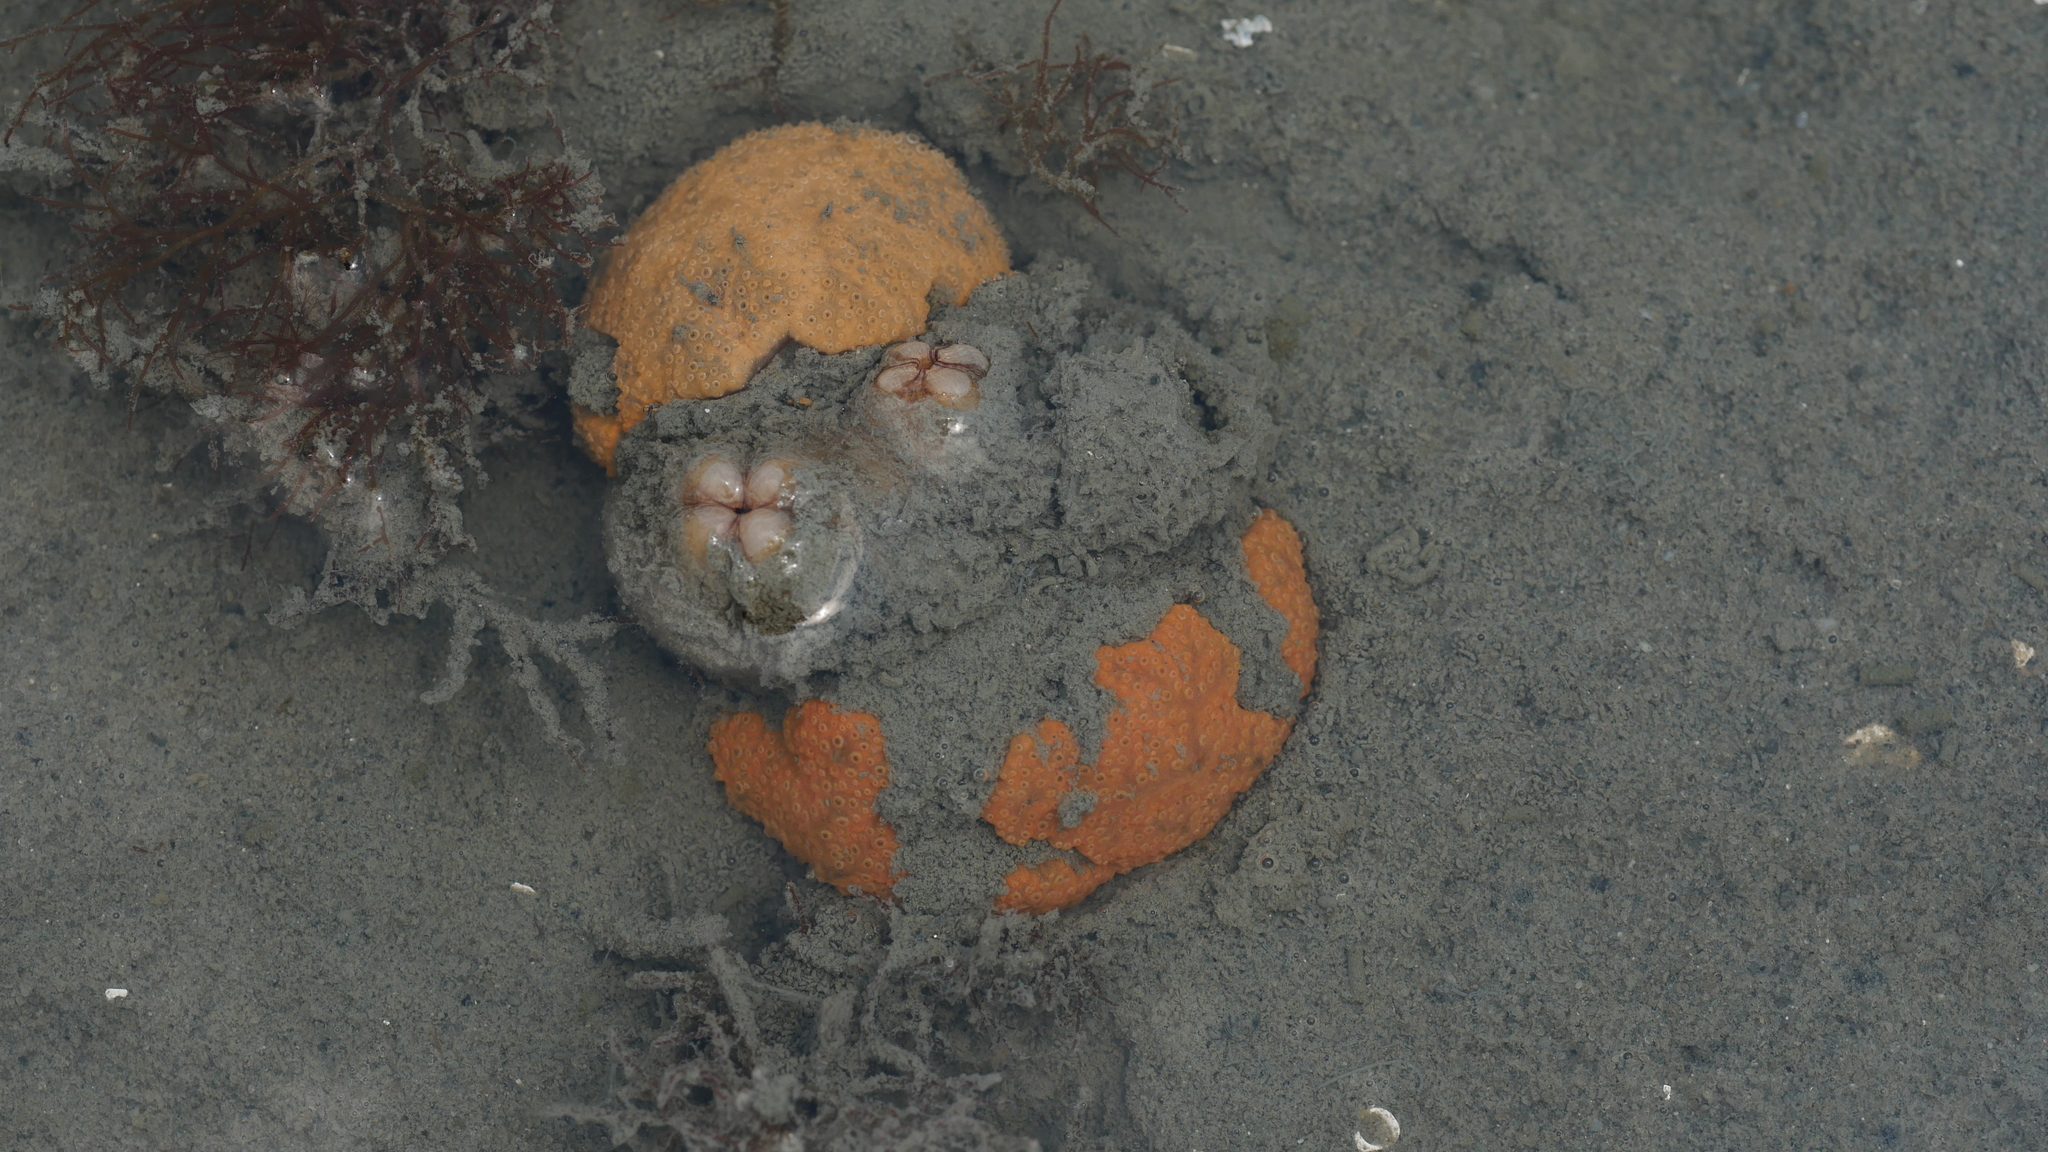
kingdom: Animalia
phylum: Chordata
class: Ascidiacea
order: Aplousobranchia
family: Polyclinidae
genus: Aplidium
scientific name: Aplidium stellatum
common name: Atlantic sea pork
